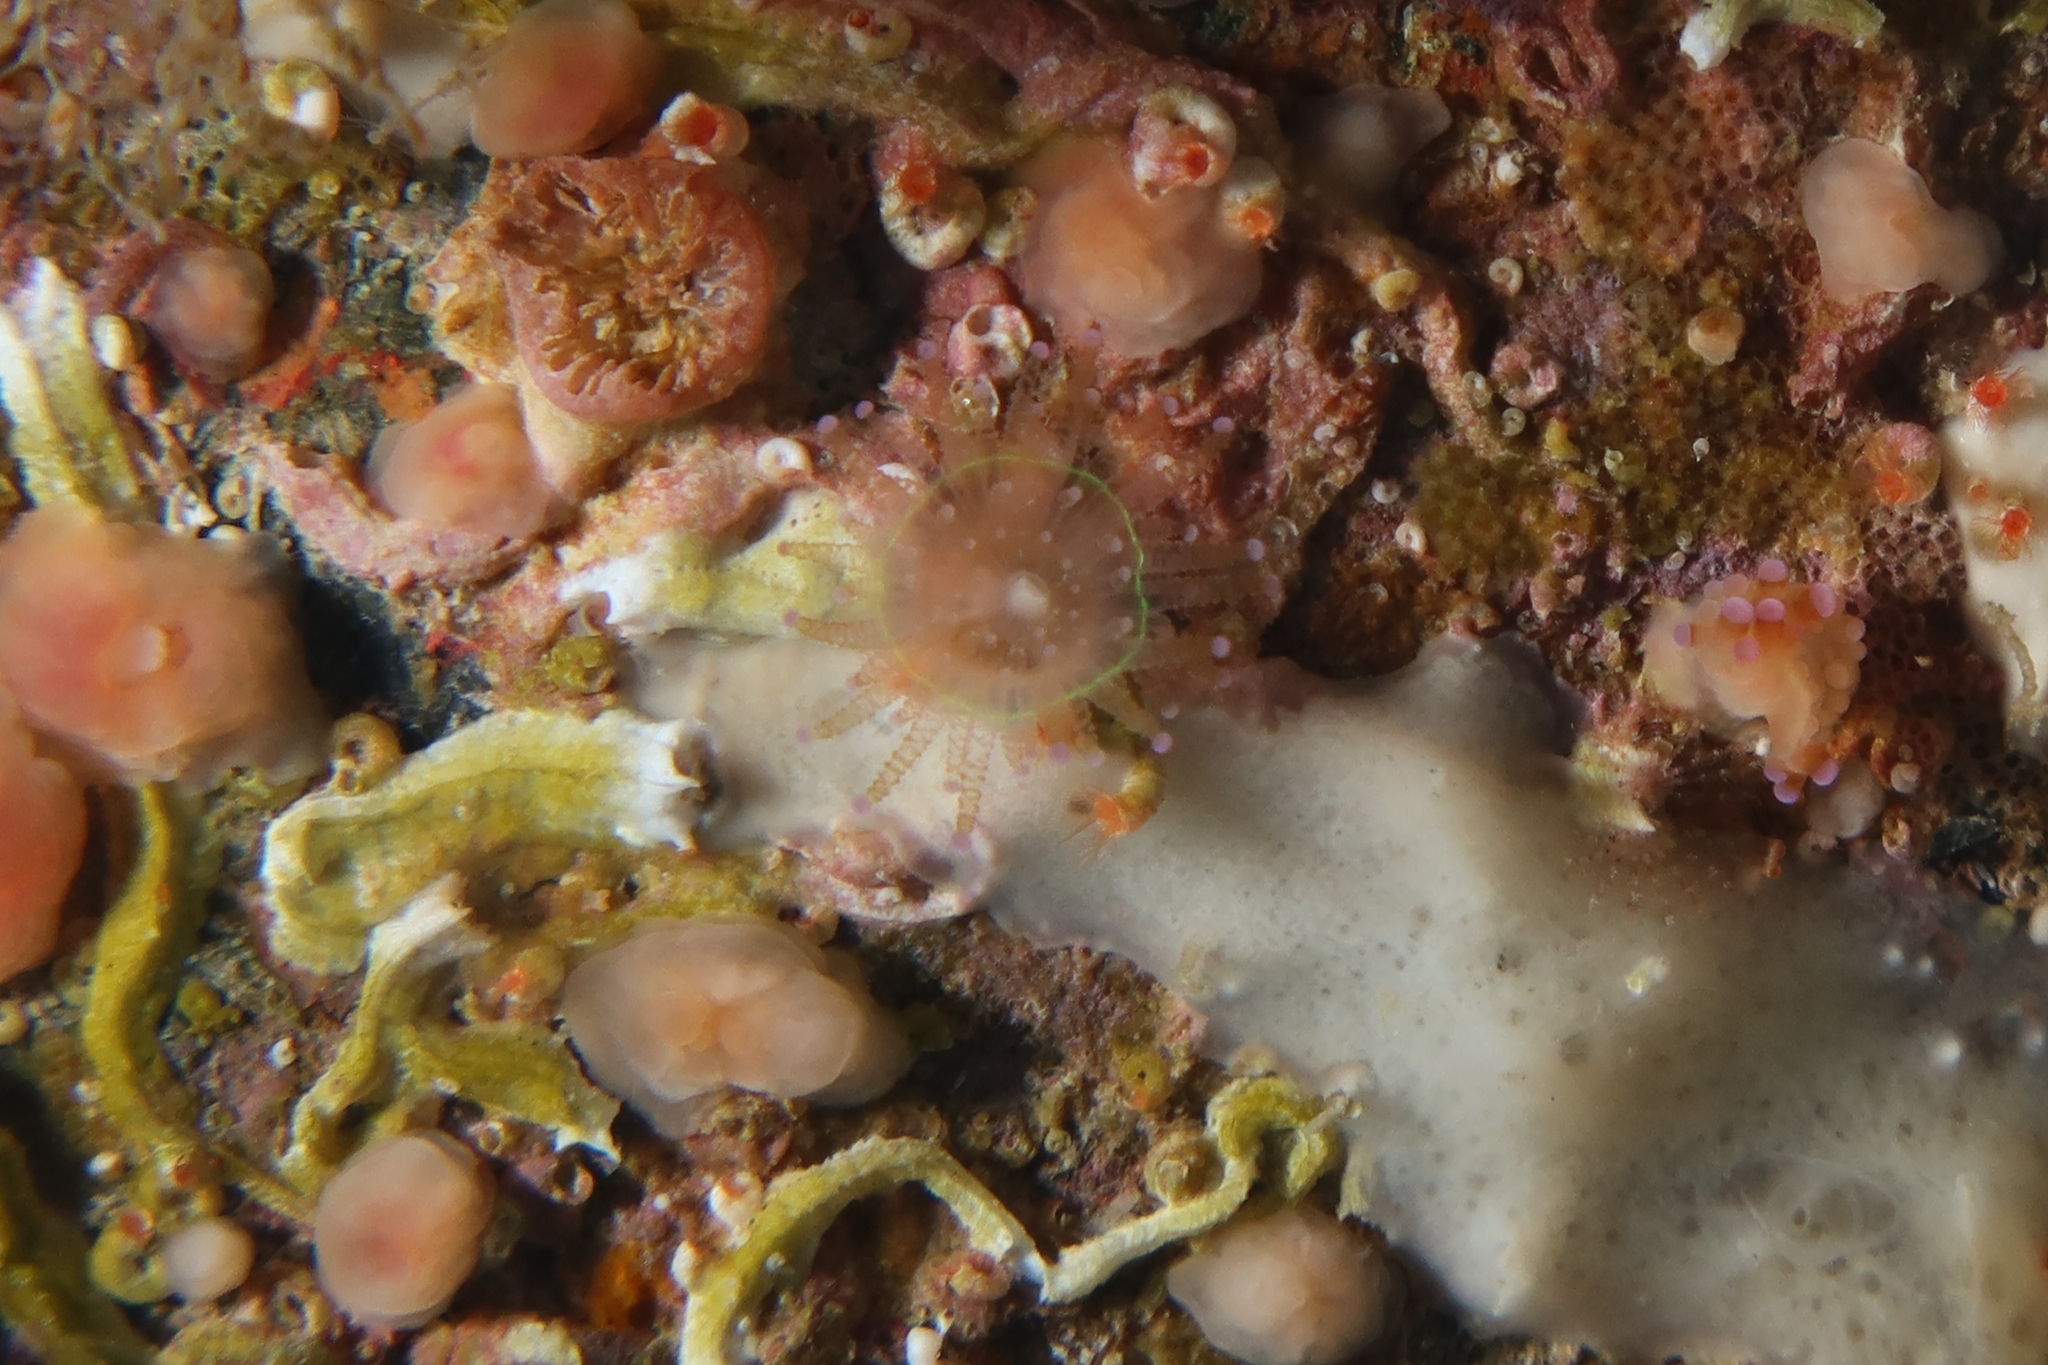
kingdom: Animalia
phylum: Cnidaria
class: Anthozoa
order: Corallimorpharia
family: Corallimorphidae
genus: Corynactis
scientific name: Corynactis viridis
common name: Jewel anemone
